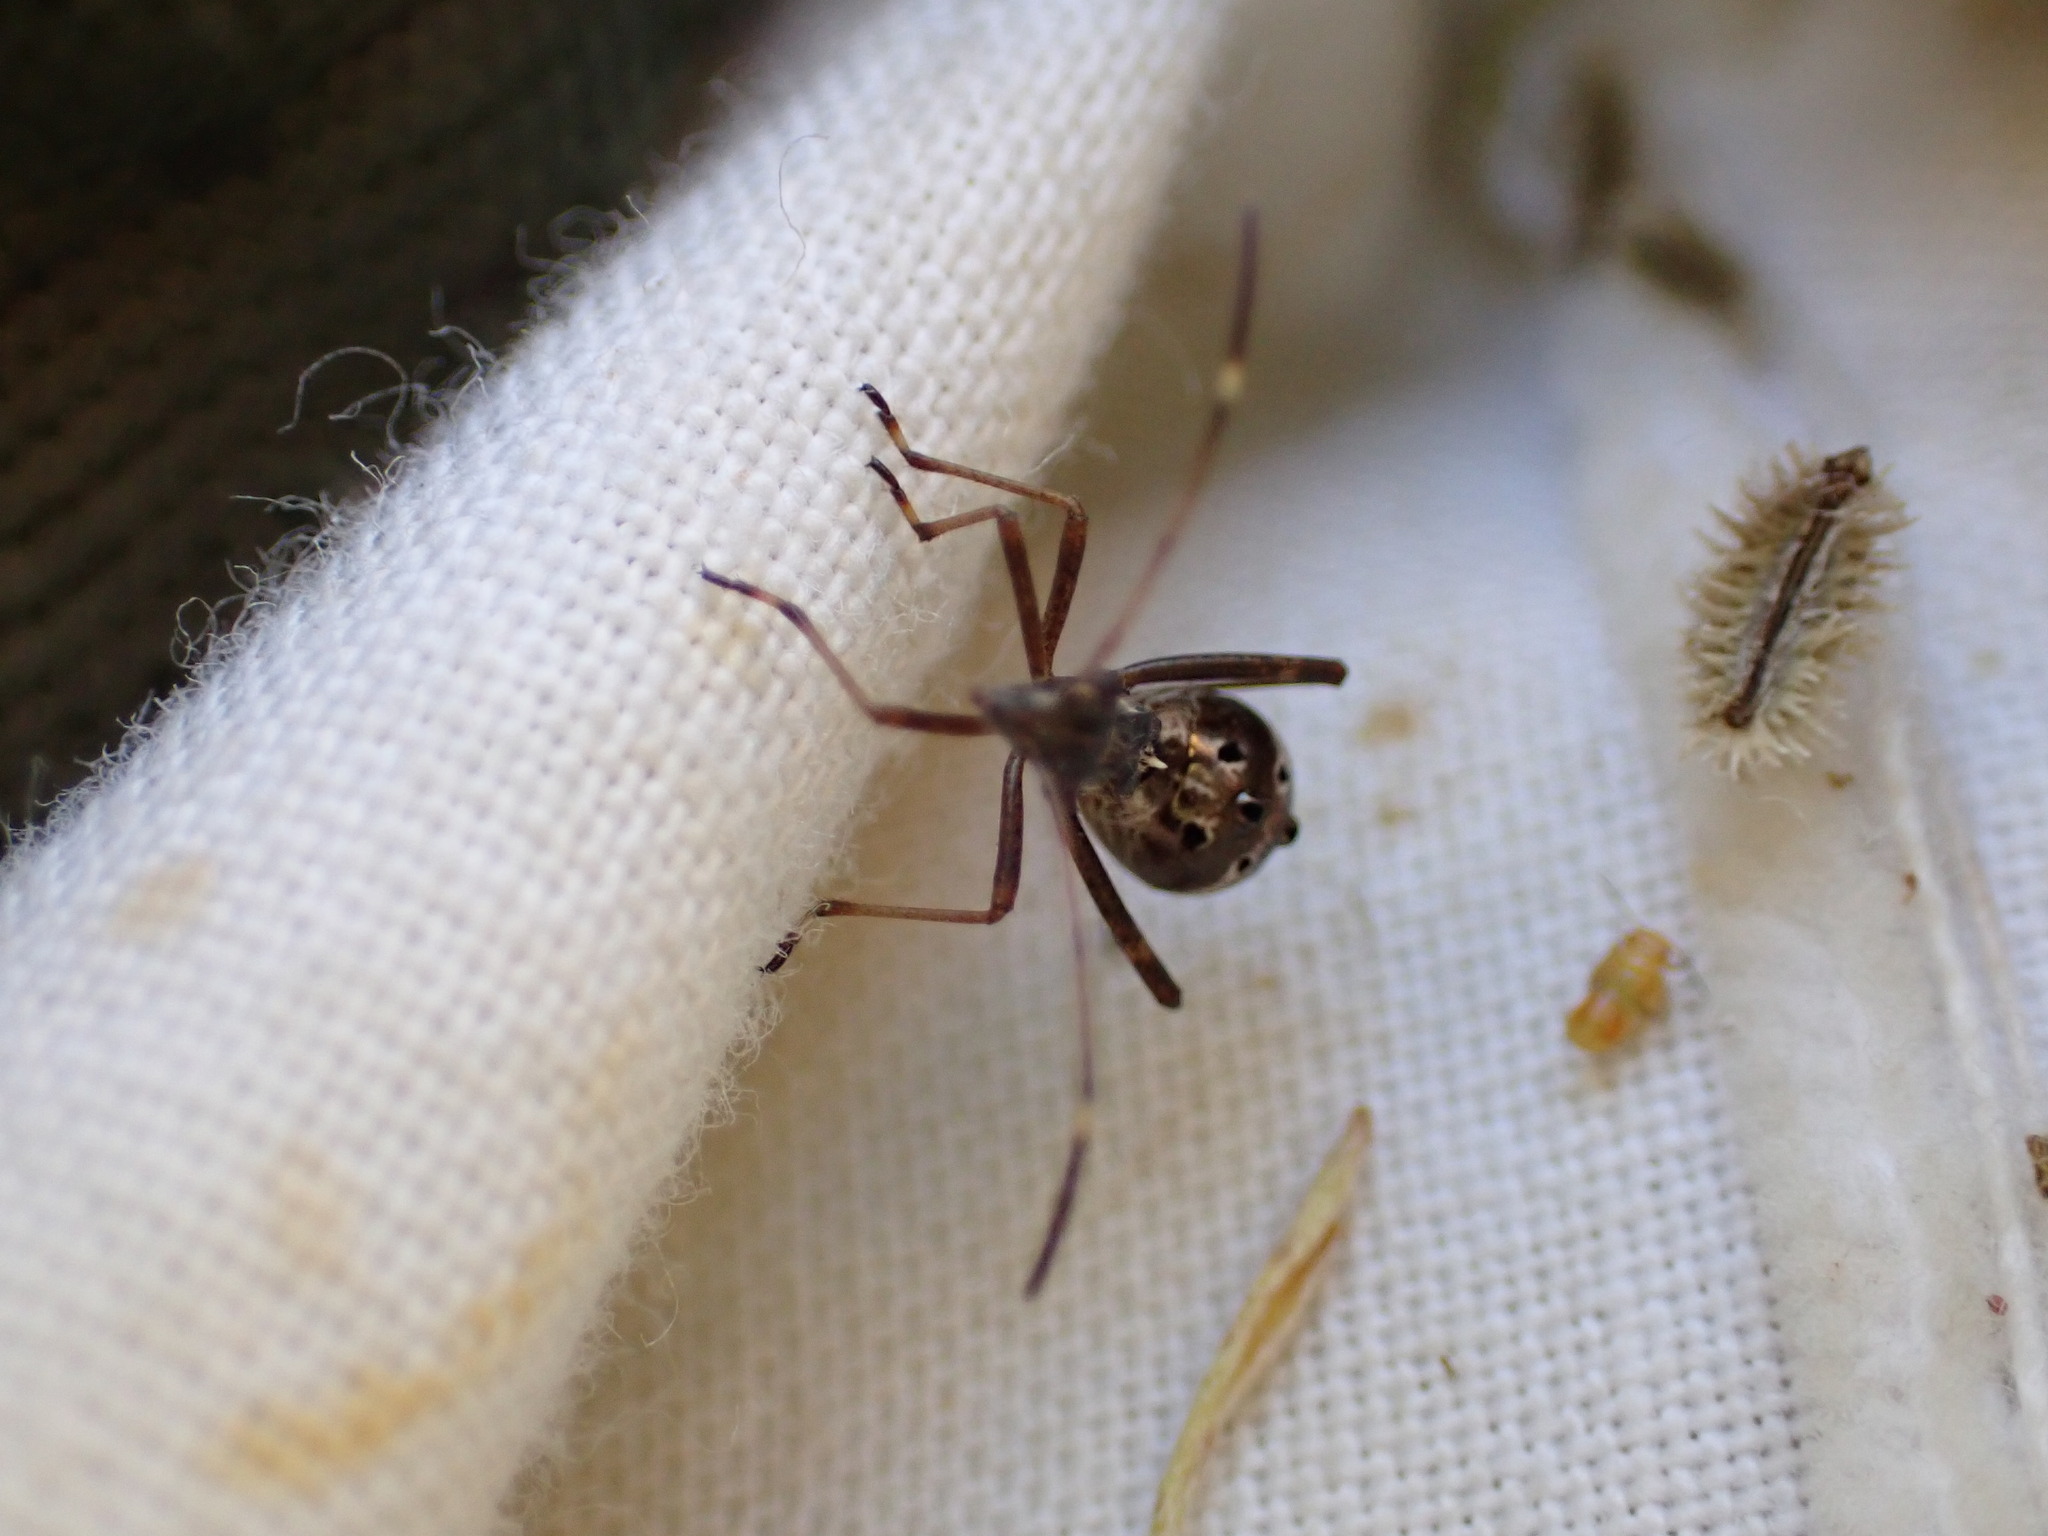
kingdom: Animalia
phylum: Arthropoda
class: Insecta
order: Hemiptera
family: Alydidae
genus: Camptopus
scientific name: Camptopus lateralis
